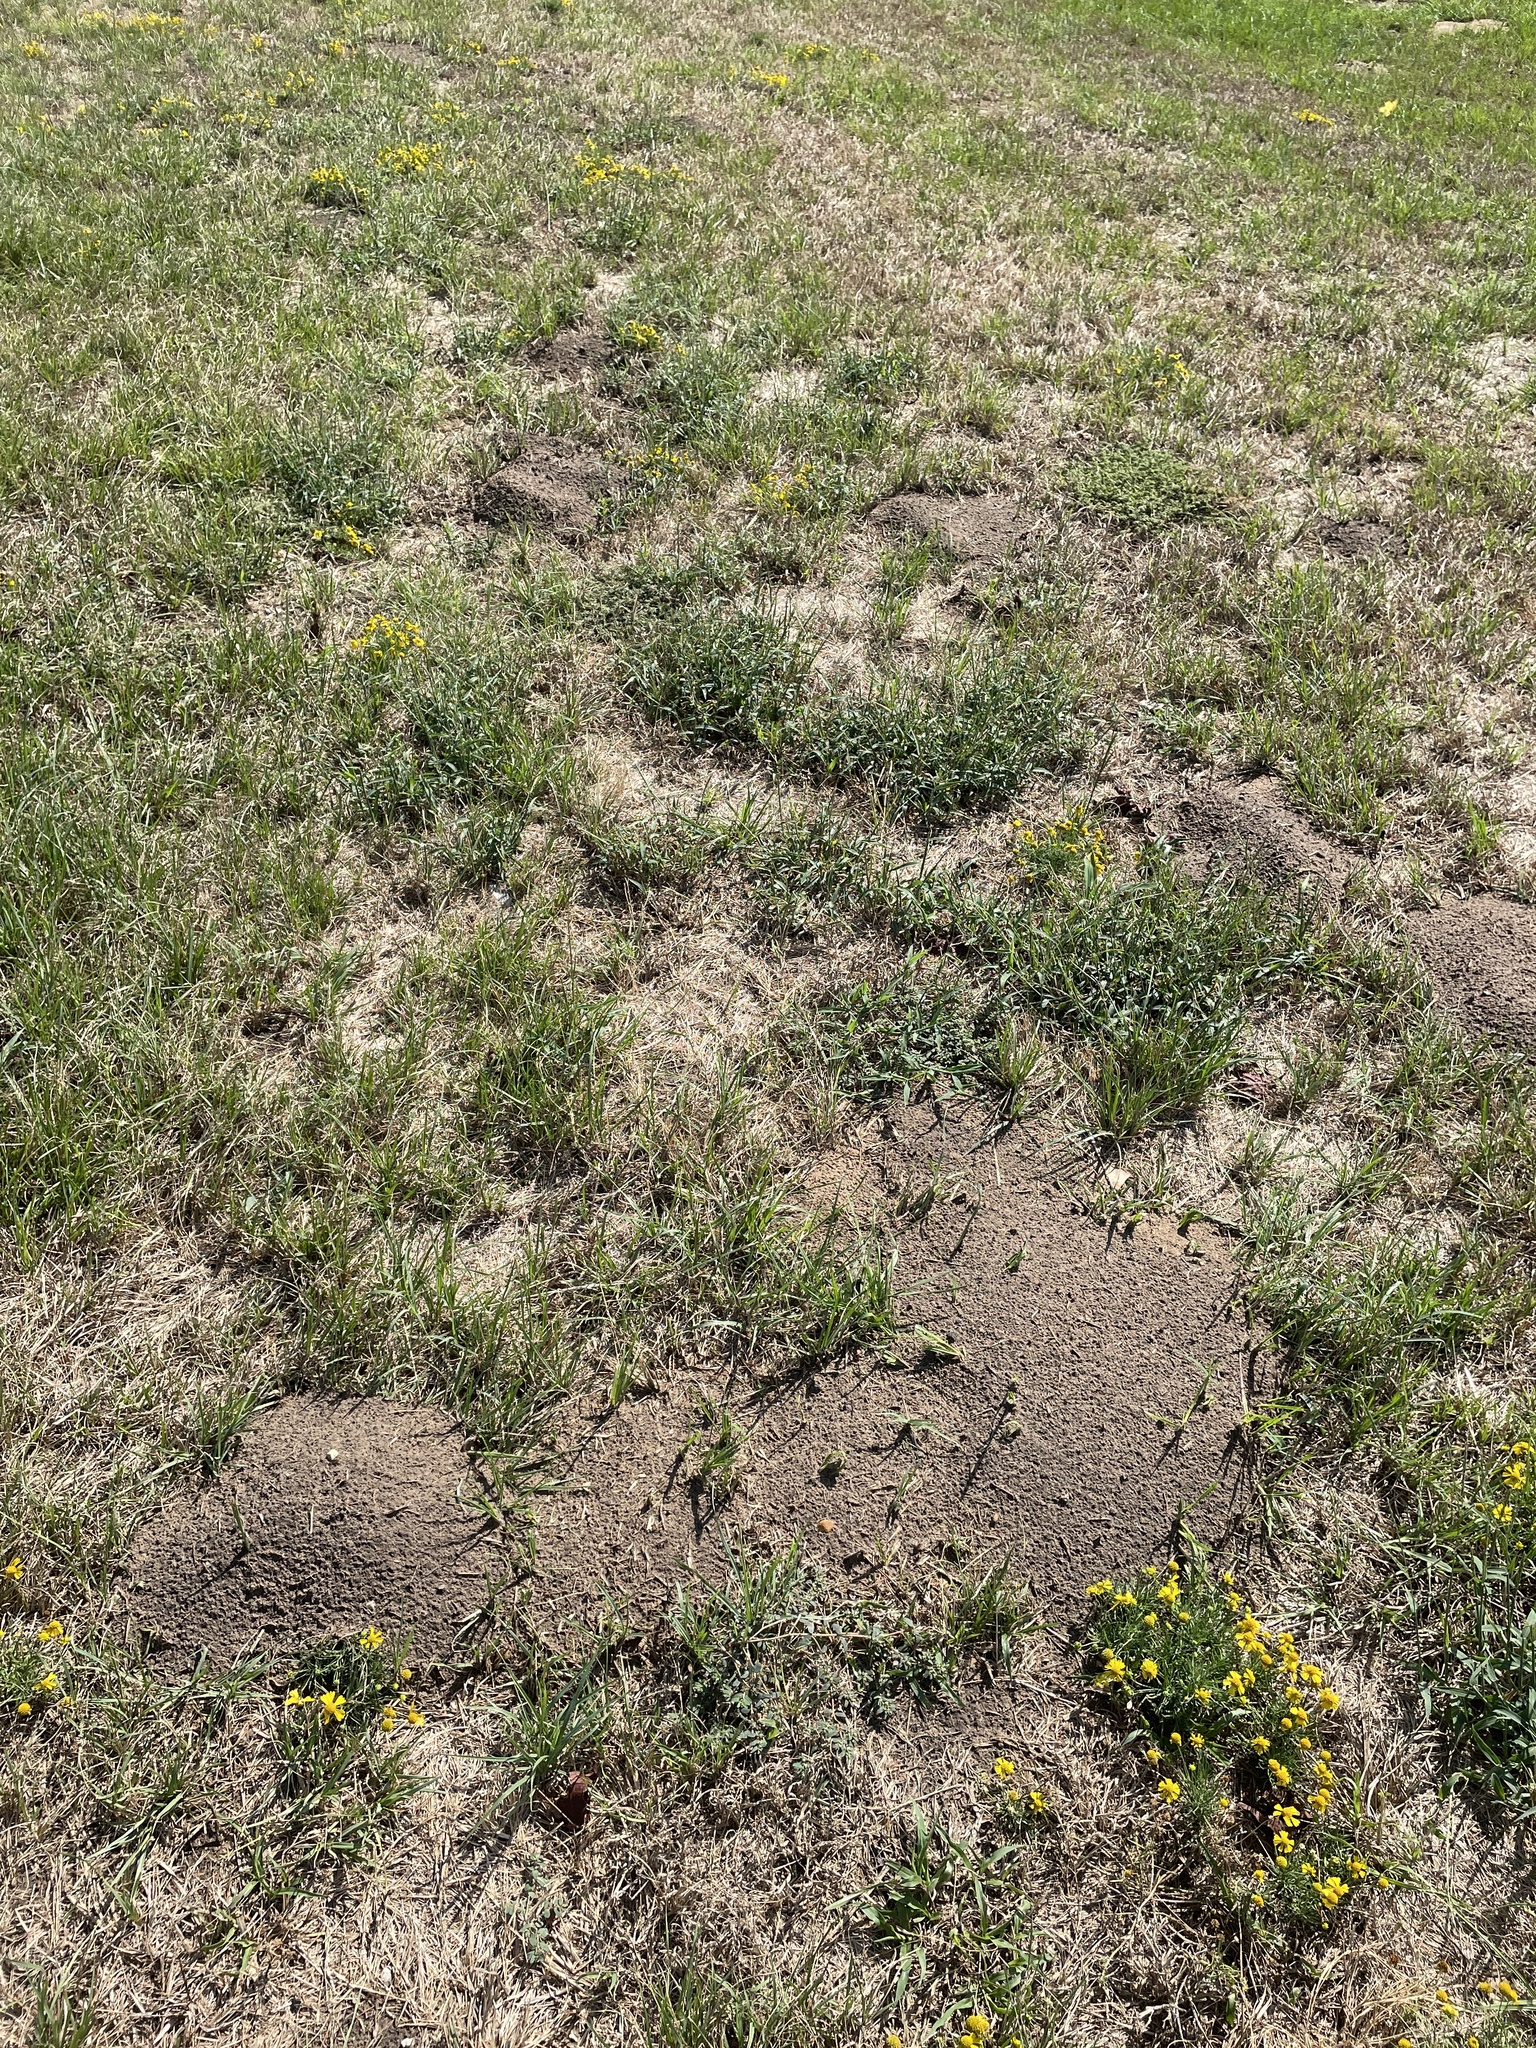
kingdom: Animalia
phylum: Chordata
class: Mammalia
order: Rodentia
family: Geomyidae
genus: Geomys
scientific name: Geomys breviceps
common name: Baird's pocket gopher
